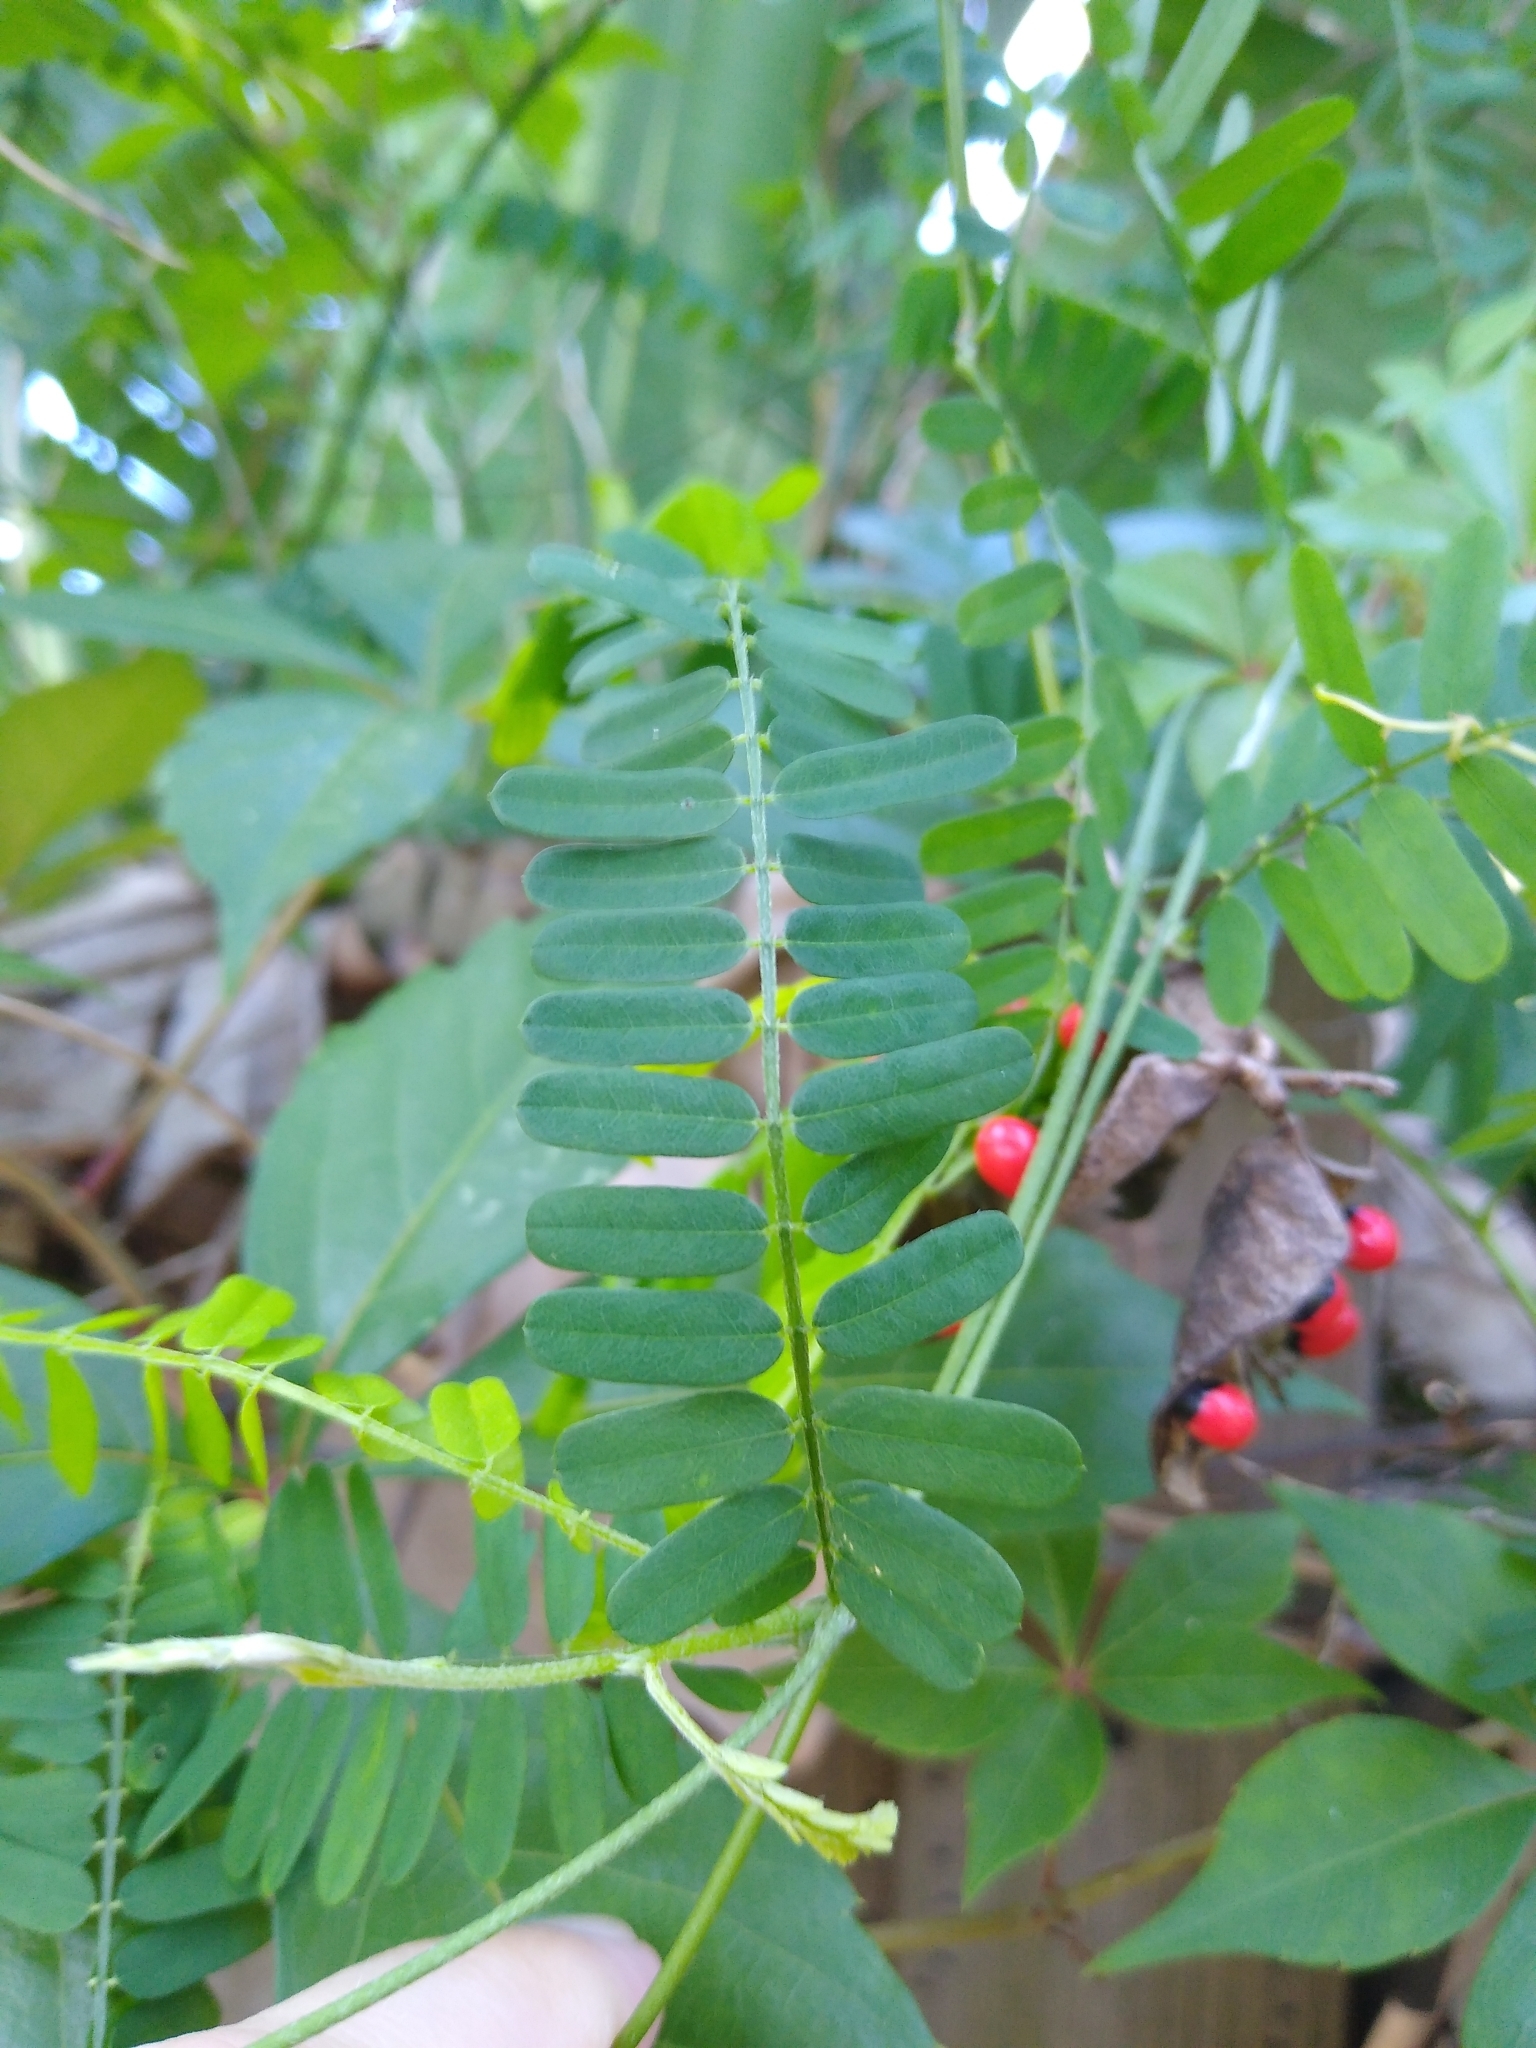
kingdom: Plantae
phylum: Tracheophyta
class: Magnoliopsida
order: Fabales
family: Fabaceae
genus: Abrus
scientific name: Abrus precatorius
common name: Rosarypea
